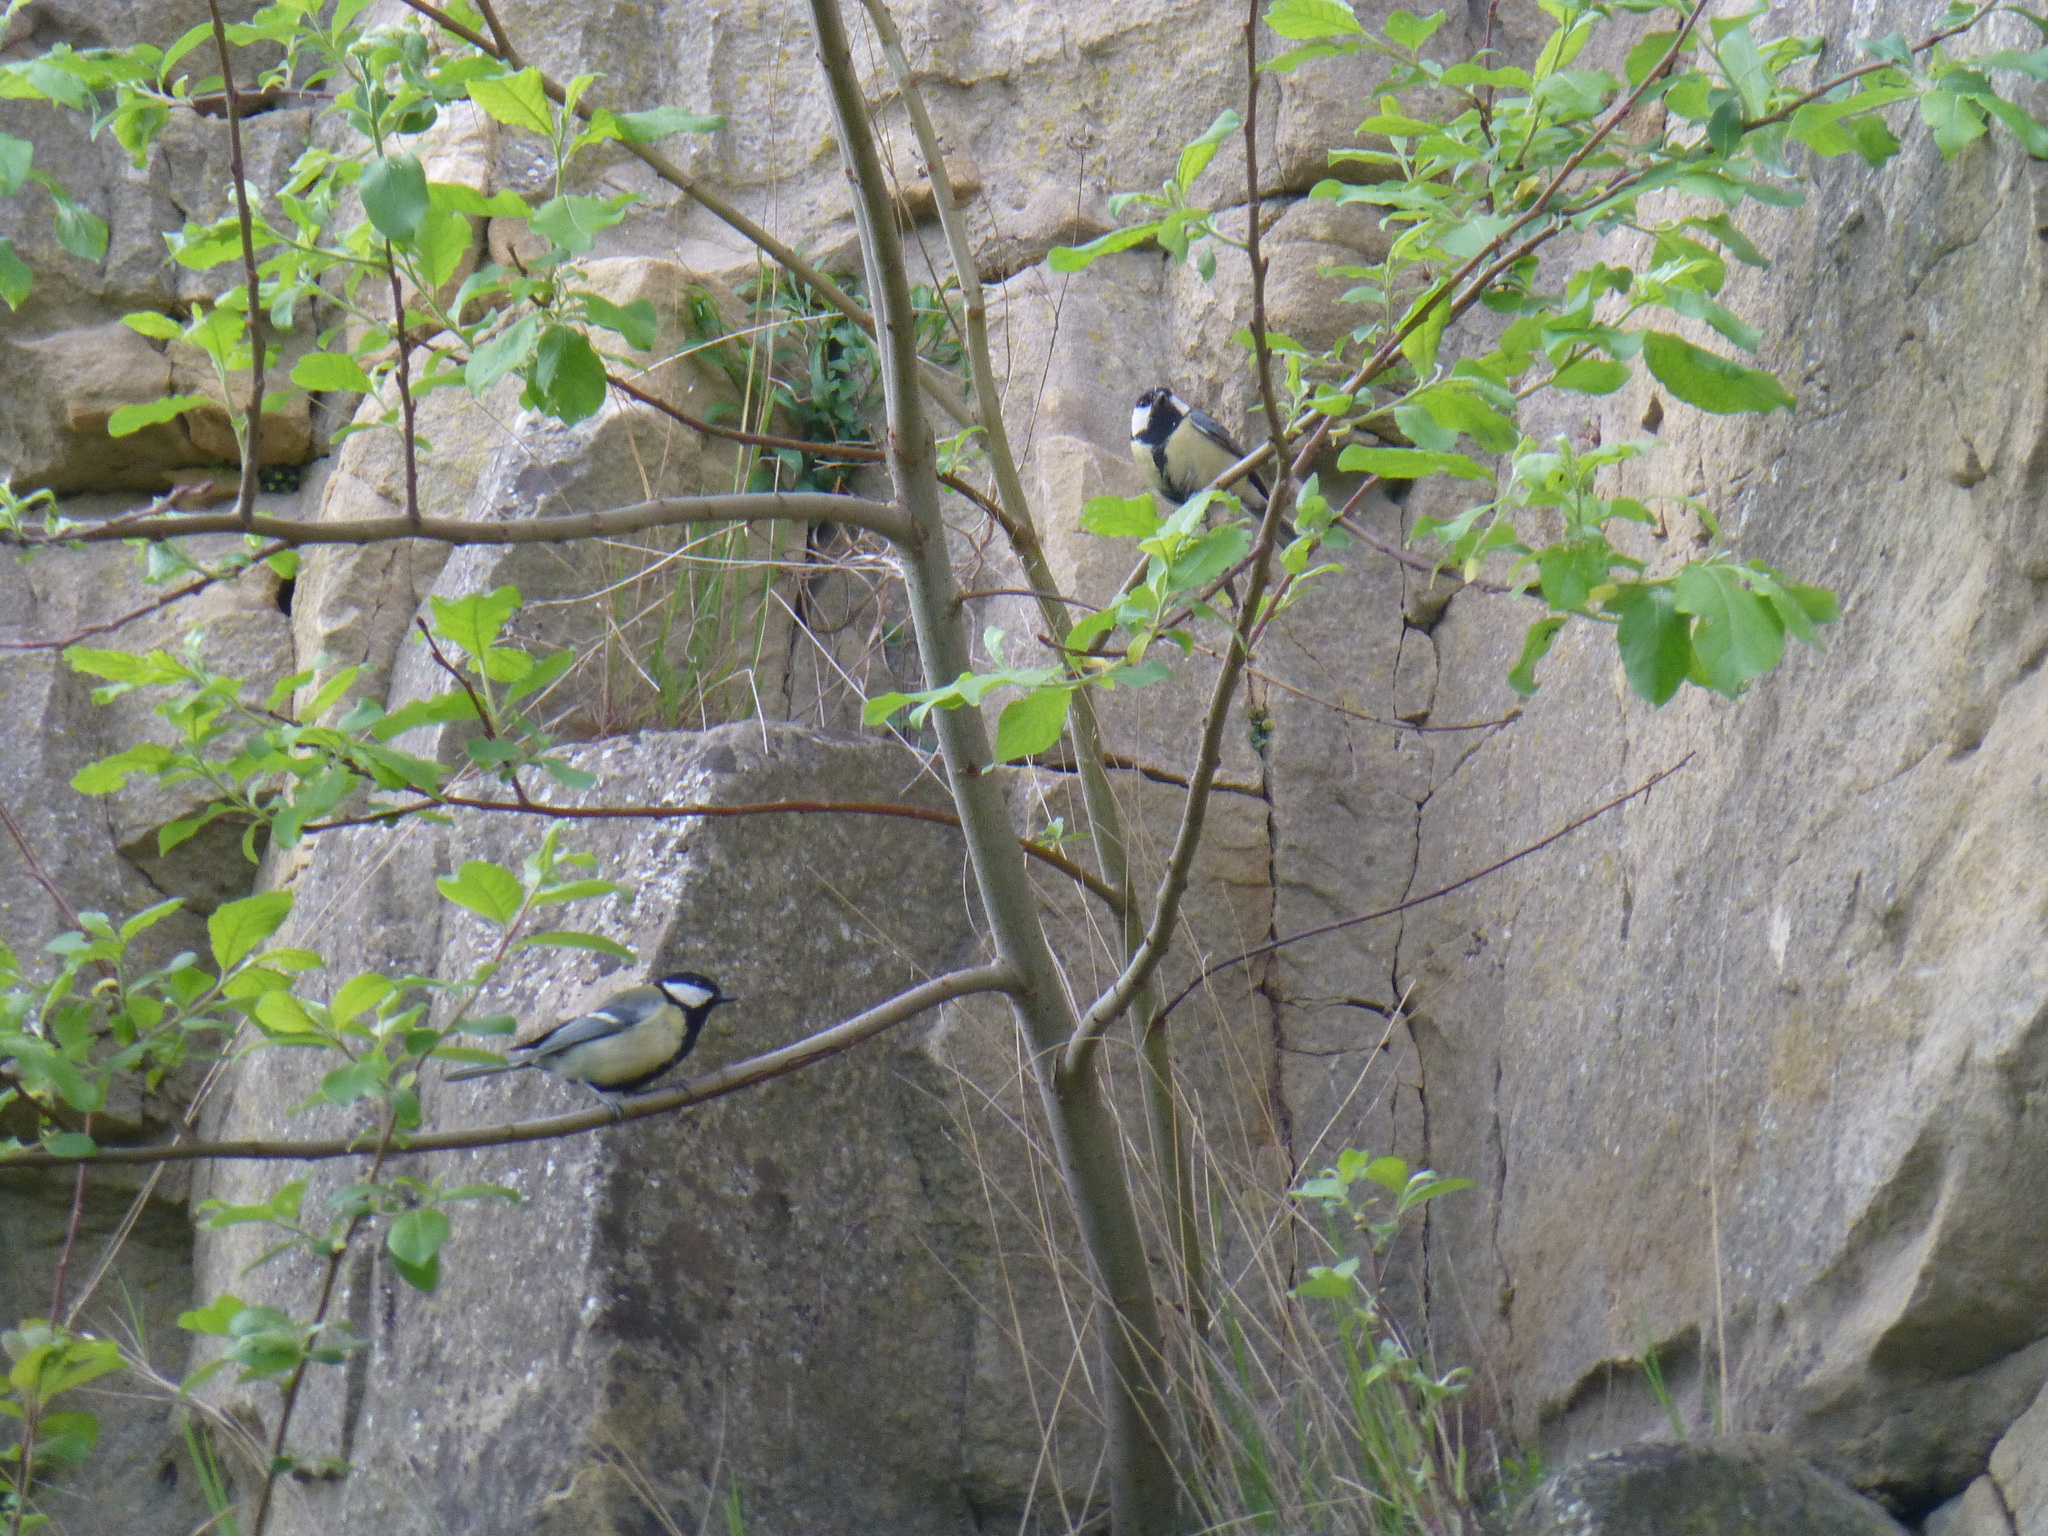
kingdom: Animalia
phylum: Chordata
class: Aves
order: Passeriformes
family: Paridae
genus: Parus
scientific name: Parus major
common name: Great tit
